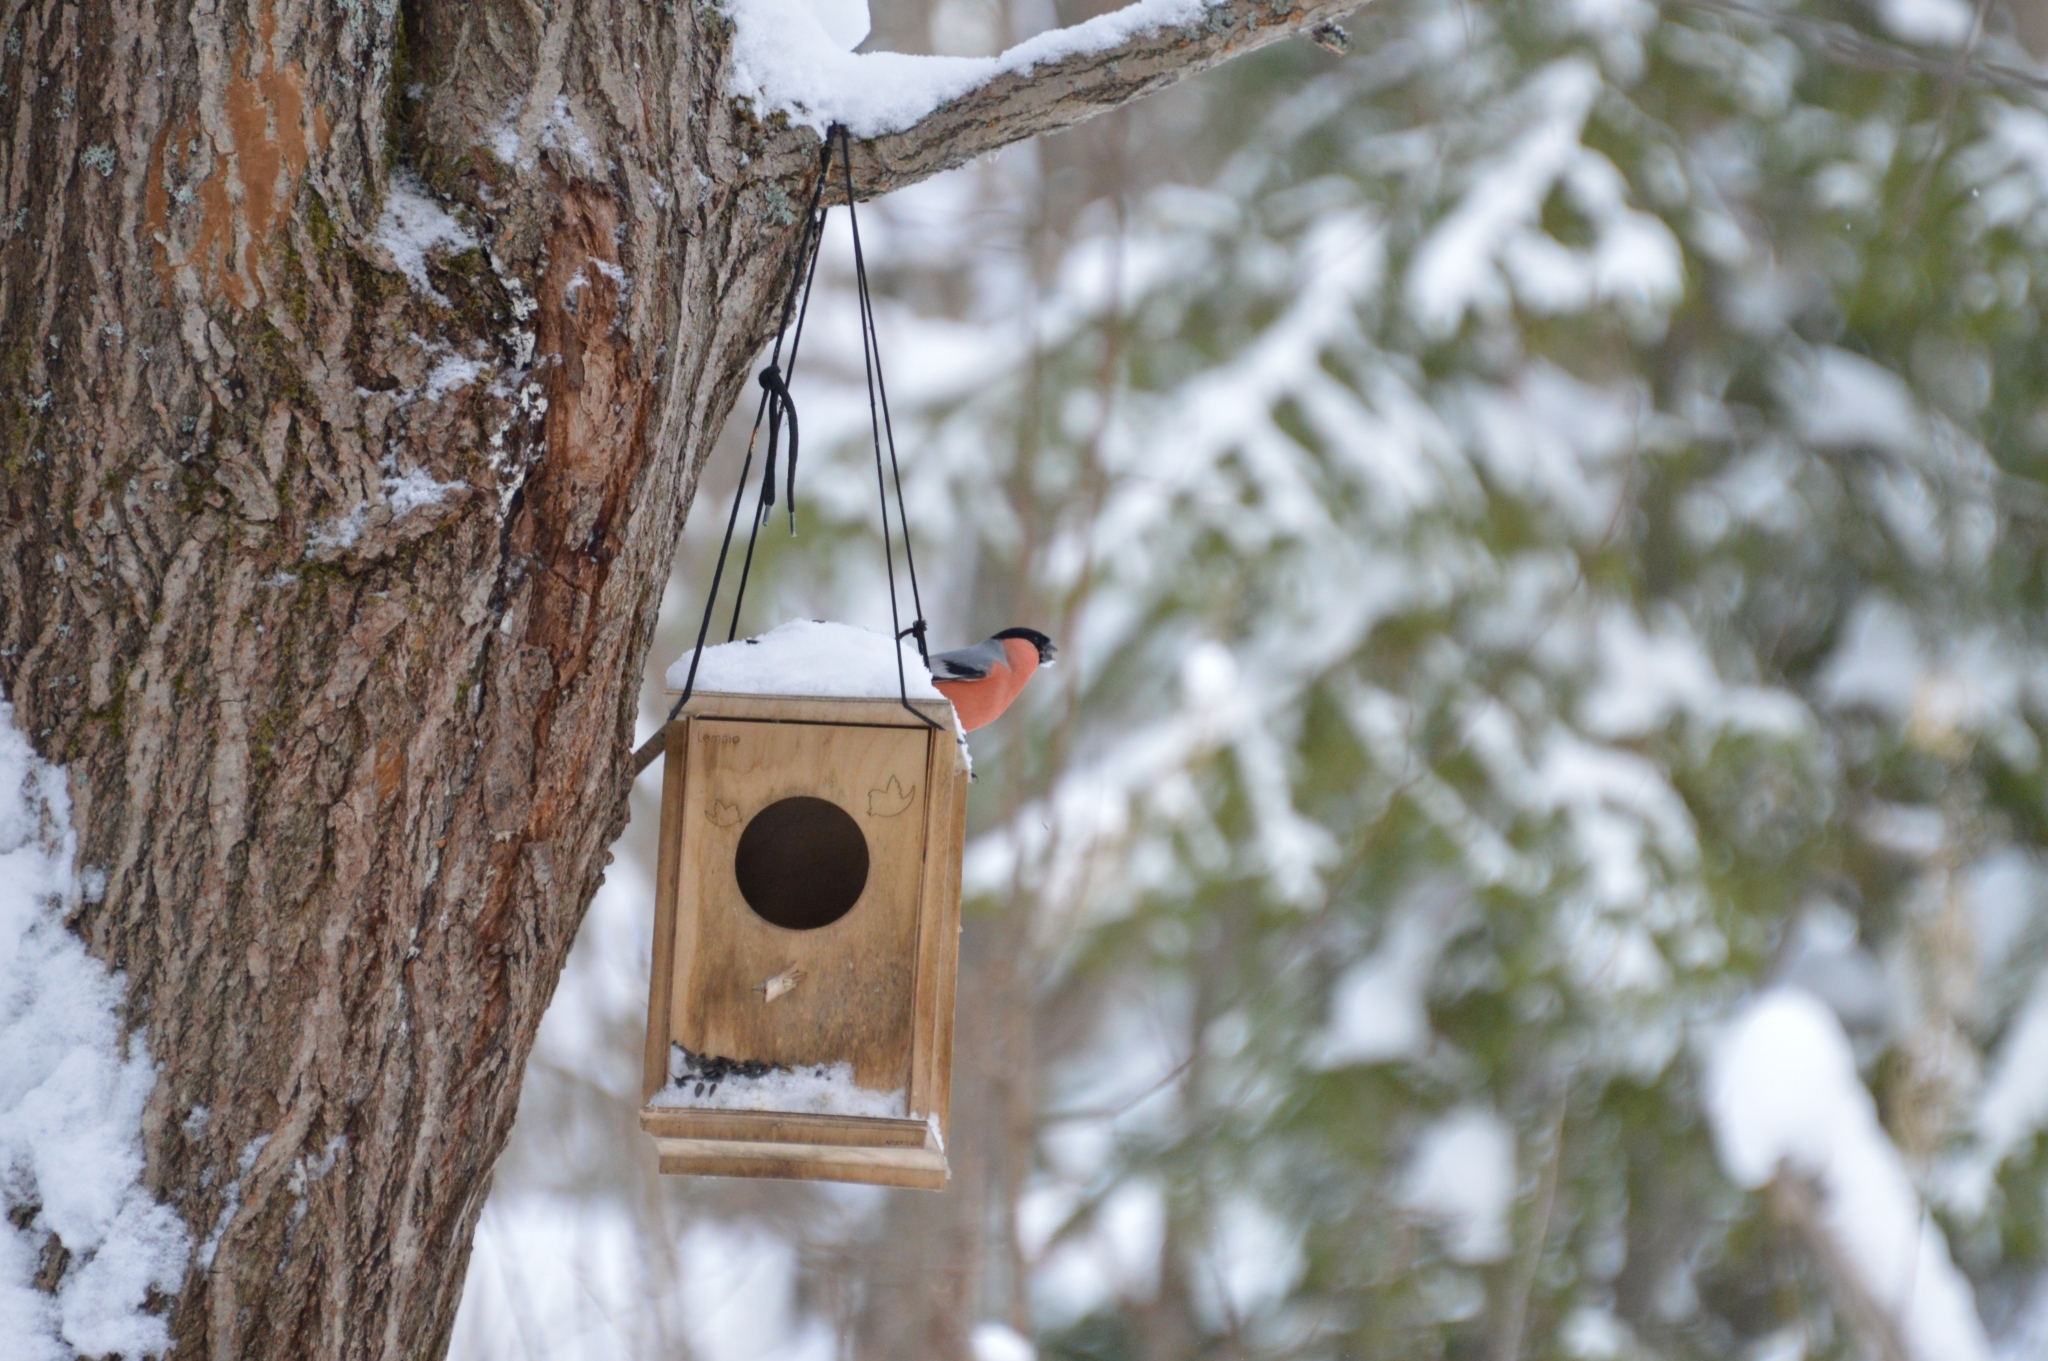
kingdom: Animalia
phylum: Chordata
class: Aves
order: Passeriformes
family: Fringillidae
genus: Pyrrhula
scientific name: Pyrrhula pyrrhula
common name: Eurasian bullfinch
